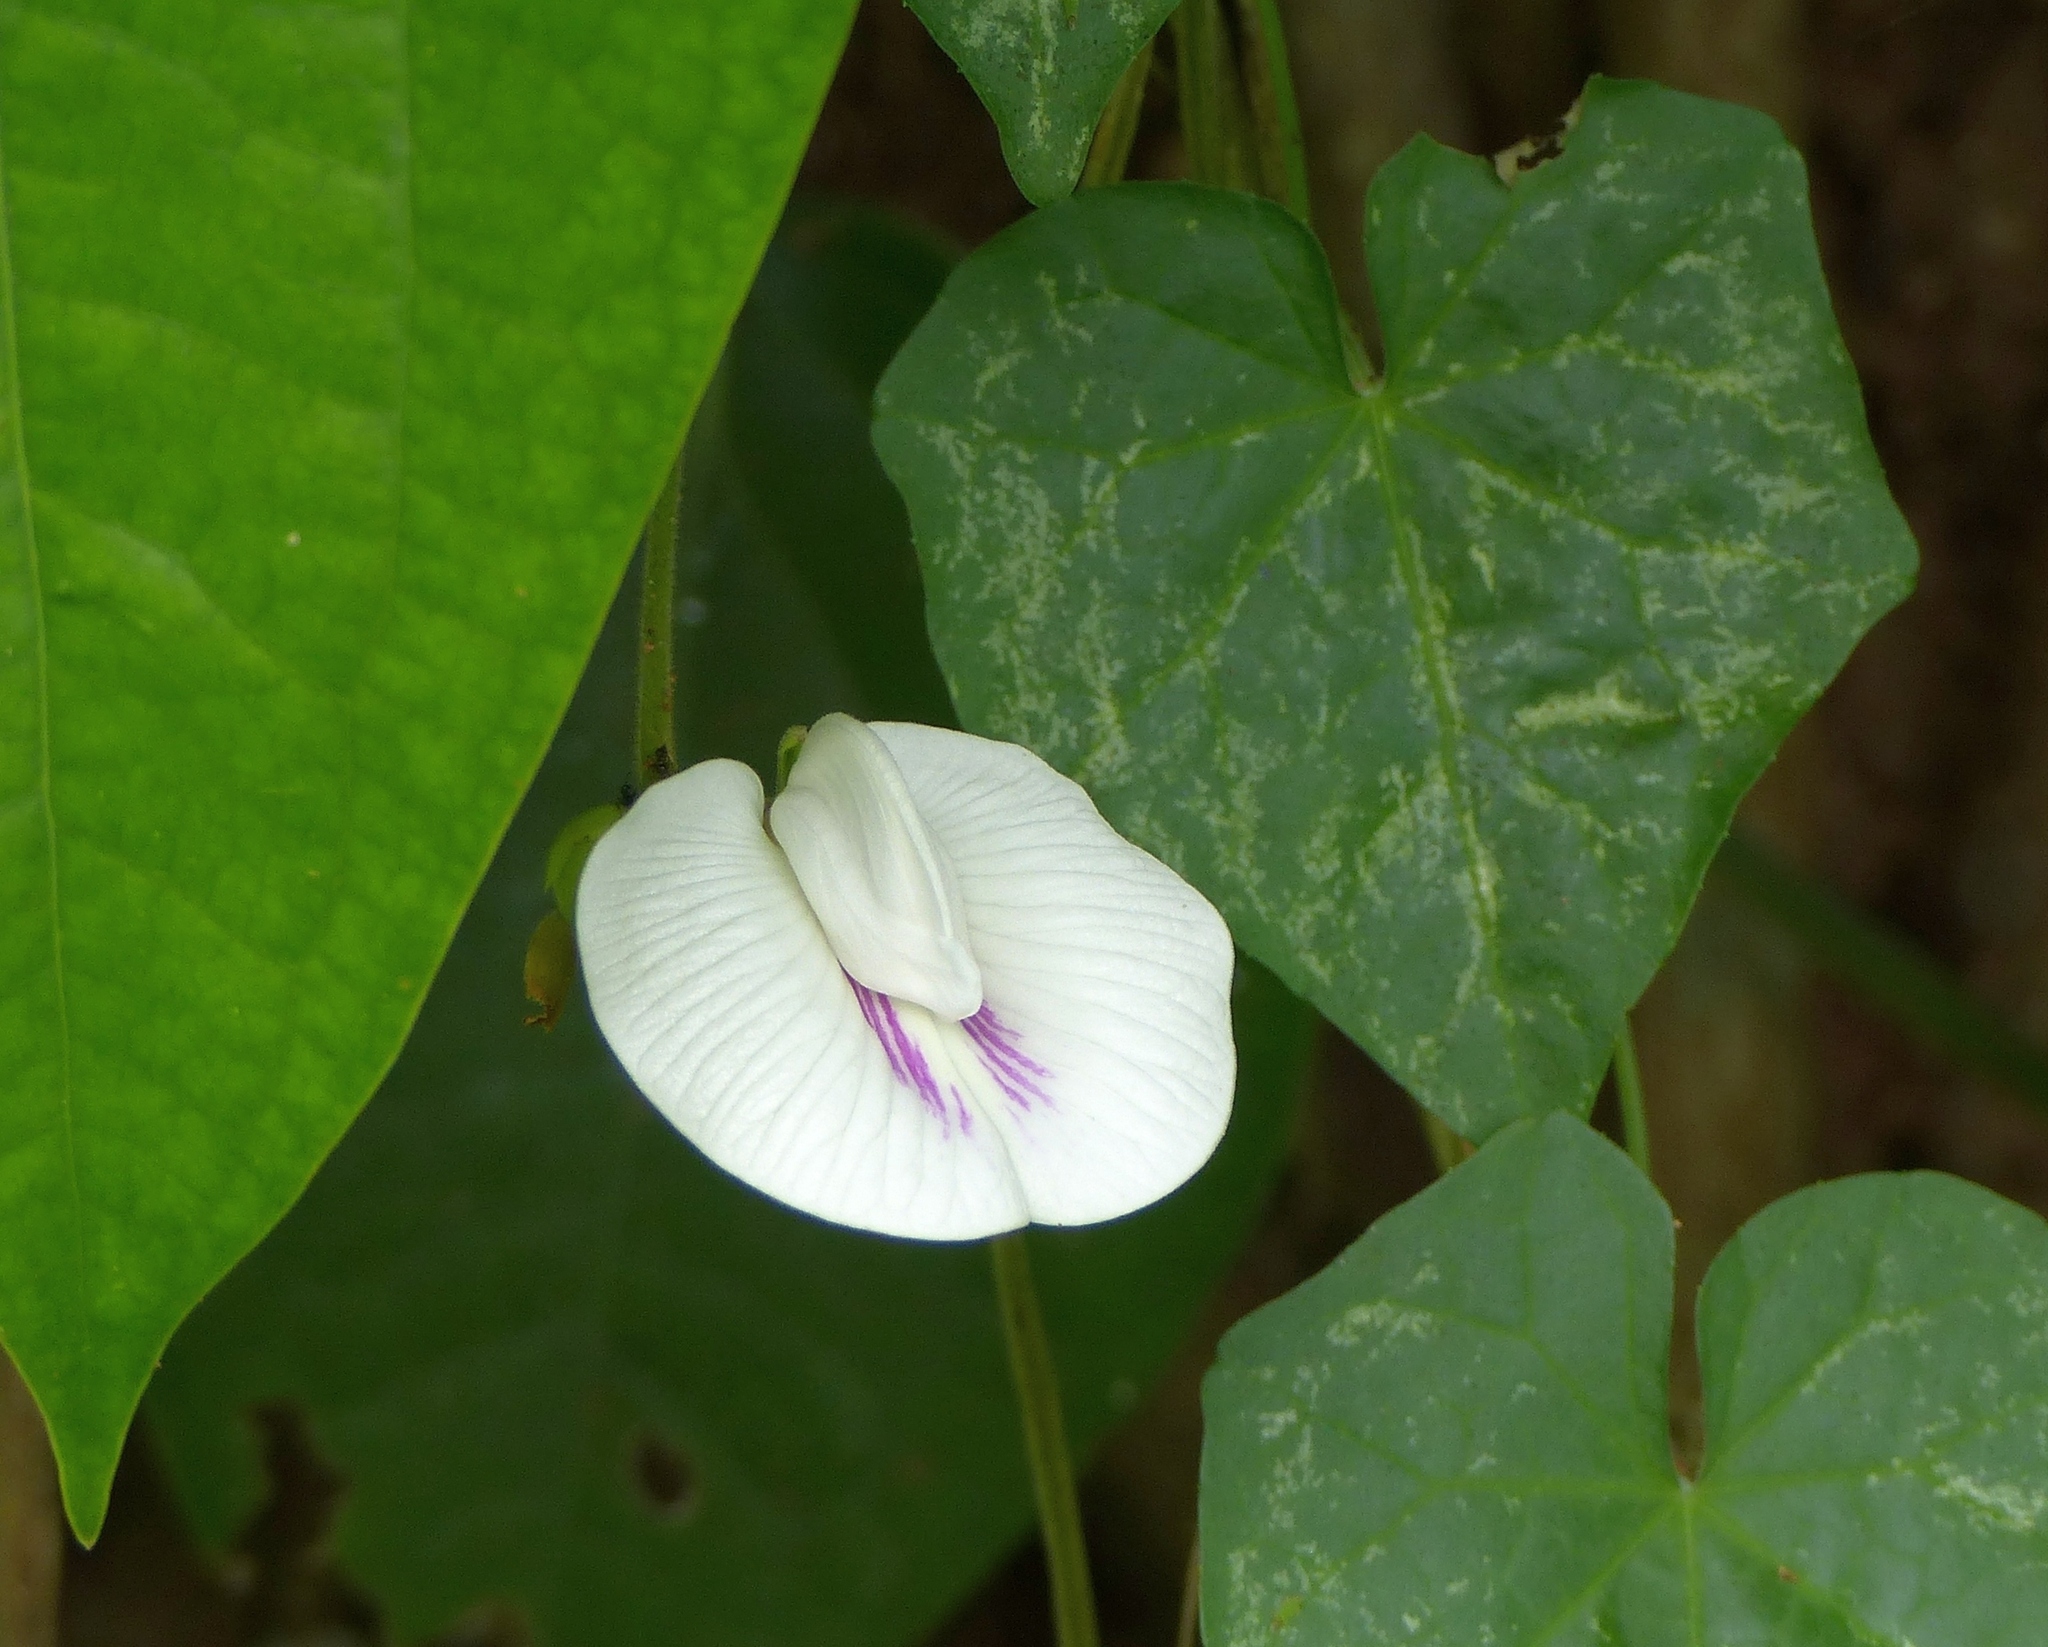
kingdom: Plantae
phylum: Tracheophyta
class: Magnoliopsida
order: Fabales
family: Fabaceae
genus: Centrosema
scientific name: Centrosema pubescens
